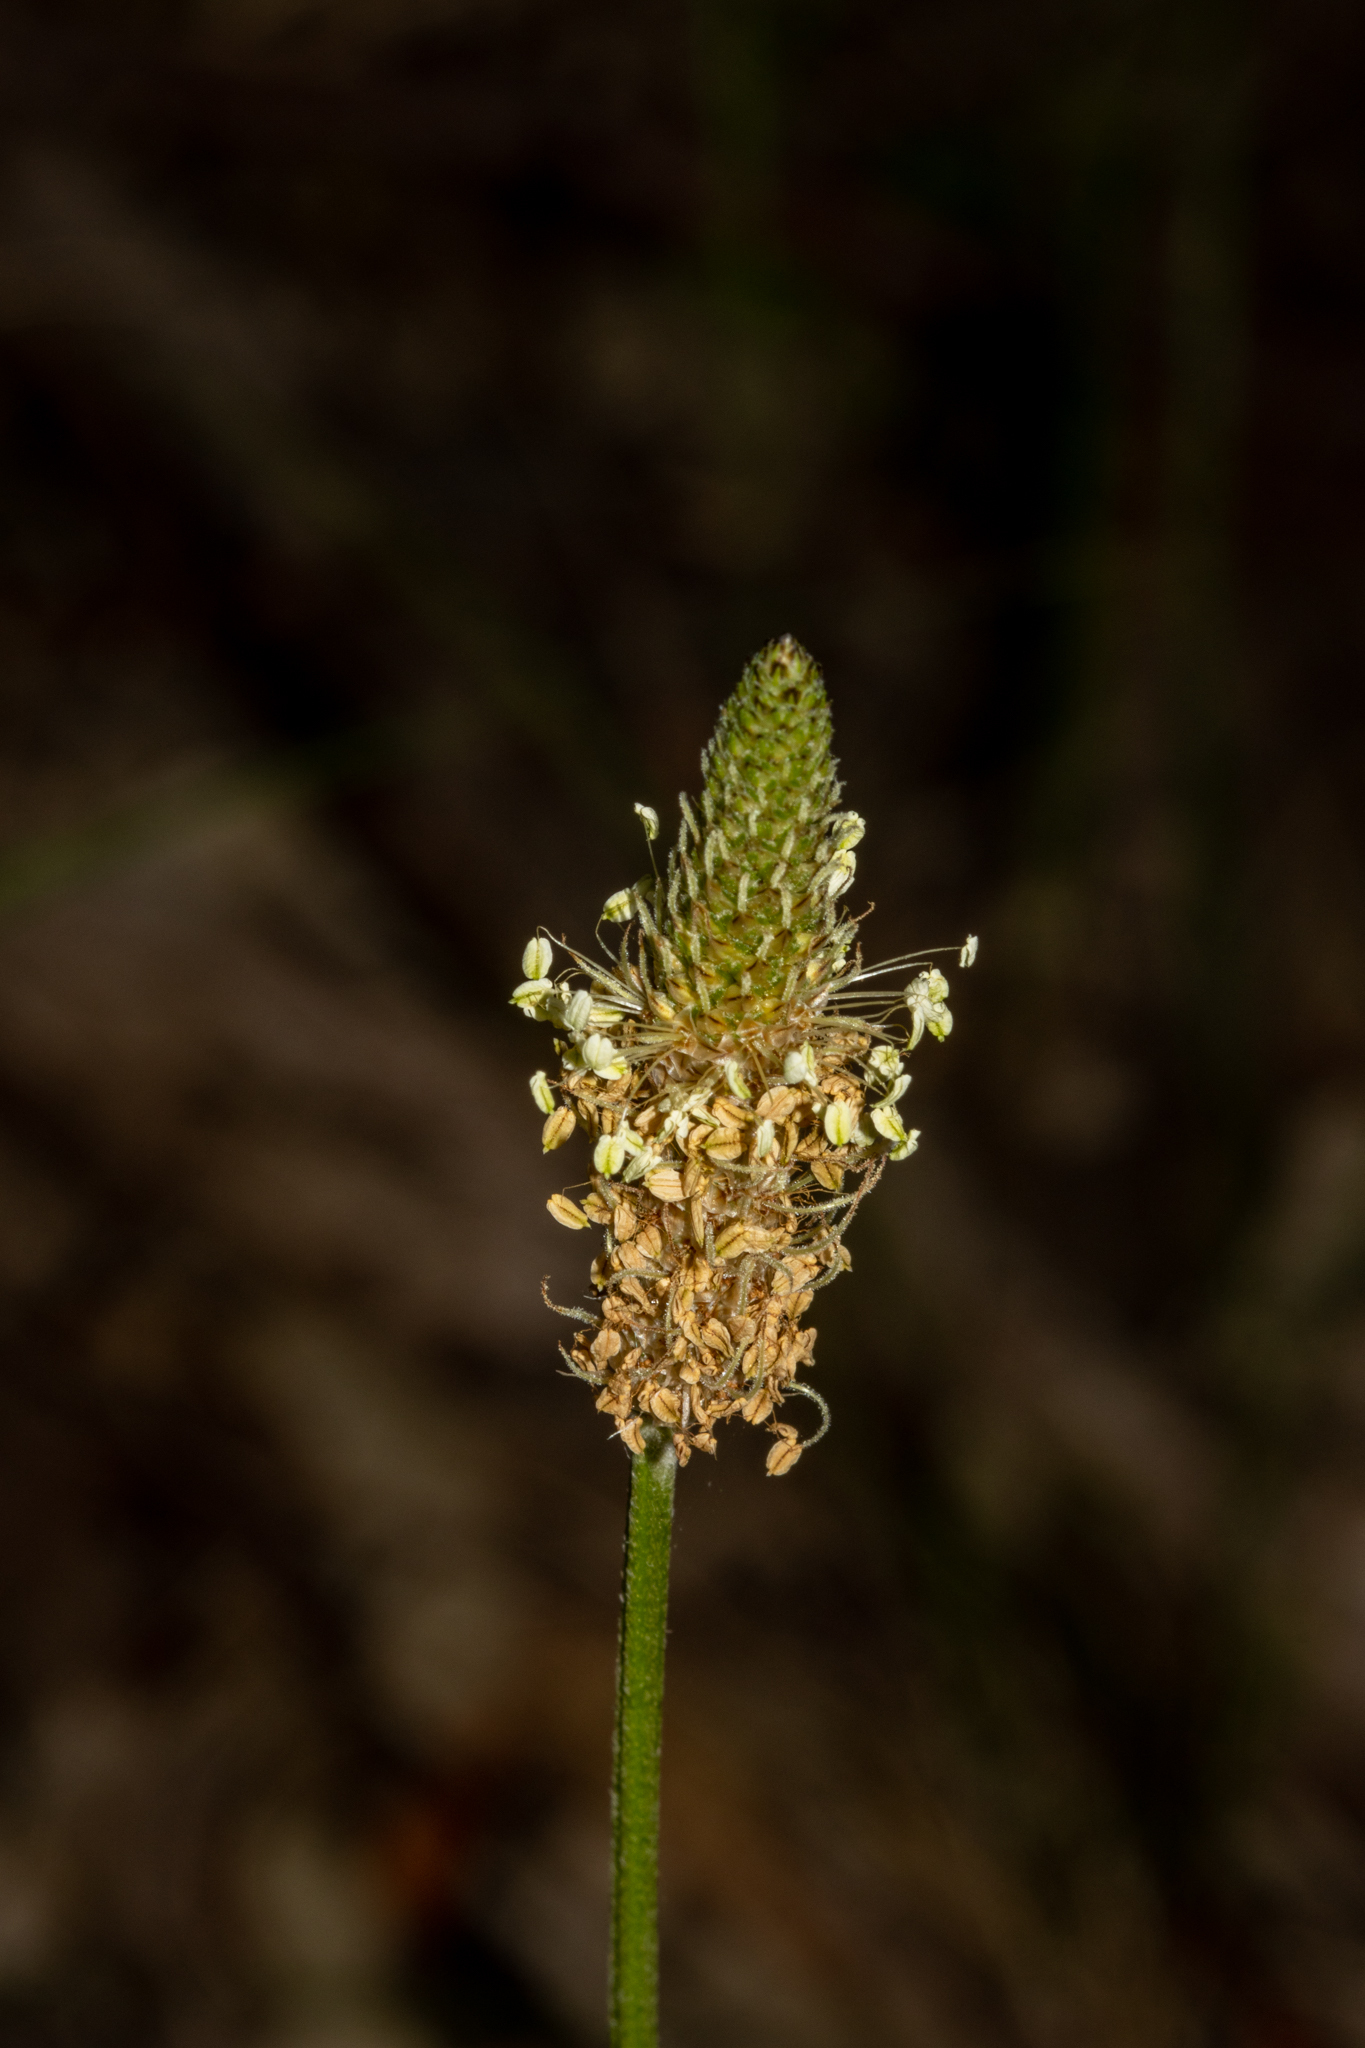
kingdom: Plantae
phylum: Tracheophyta
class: Magnoliopsida
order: Lamiales
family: Plantaginaceae
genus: Plantago
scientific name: Plantago lanceolata
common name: Ribwort plantain
